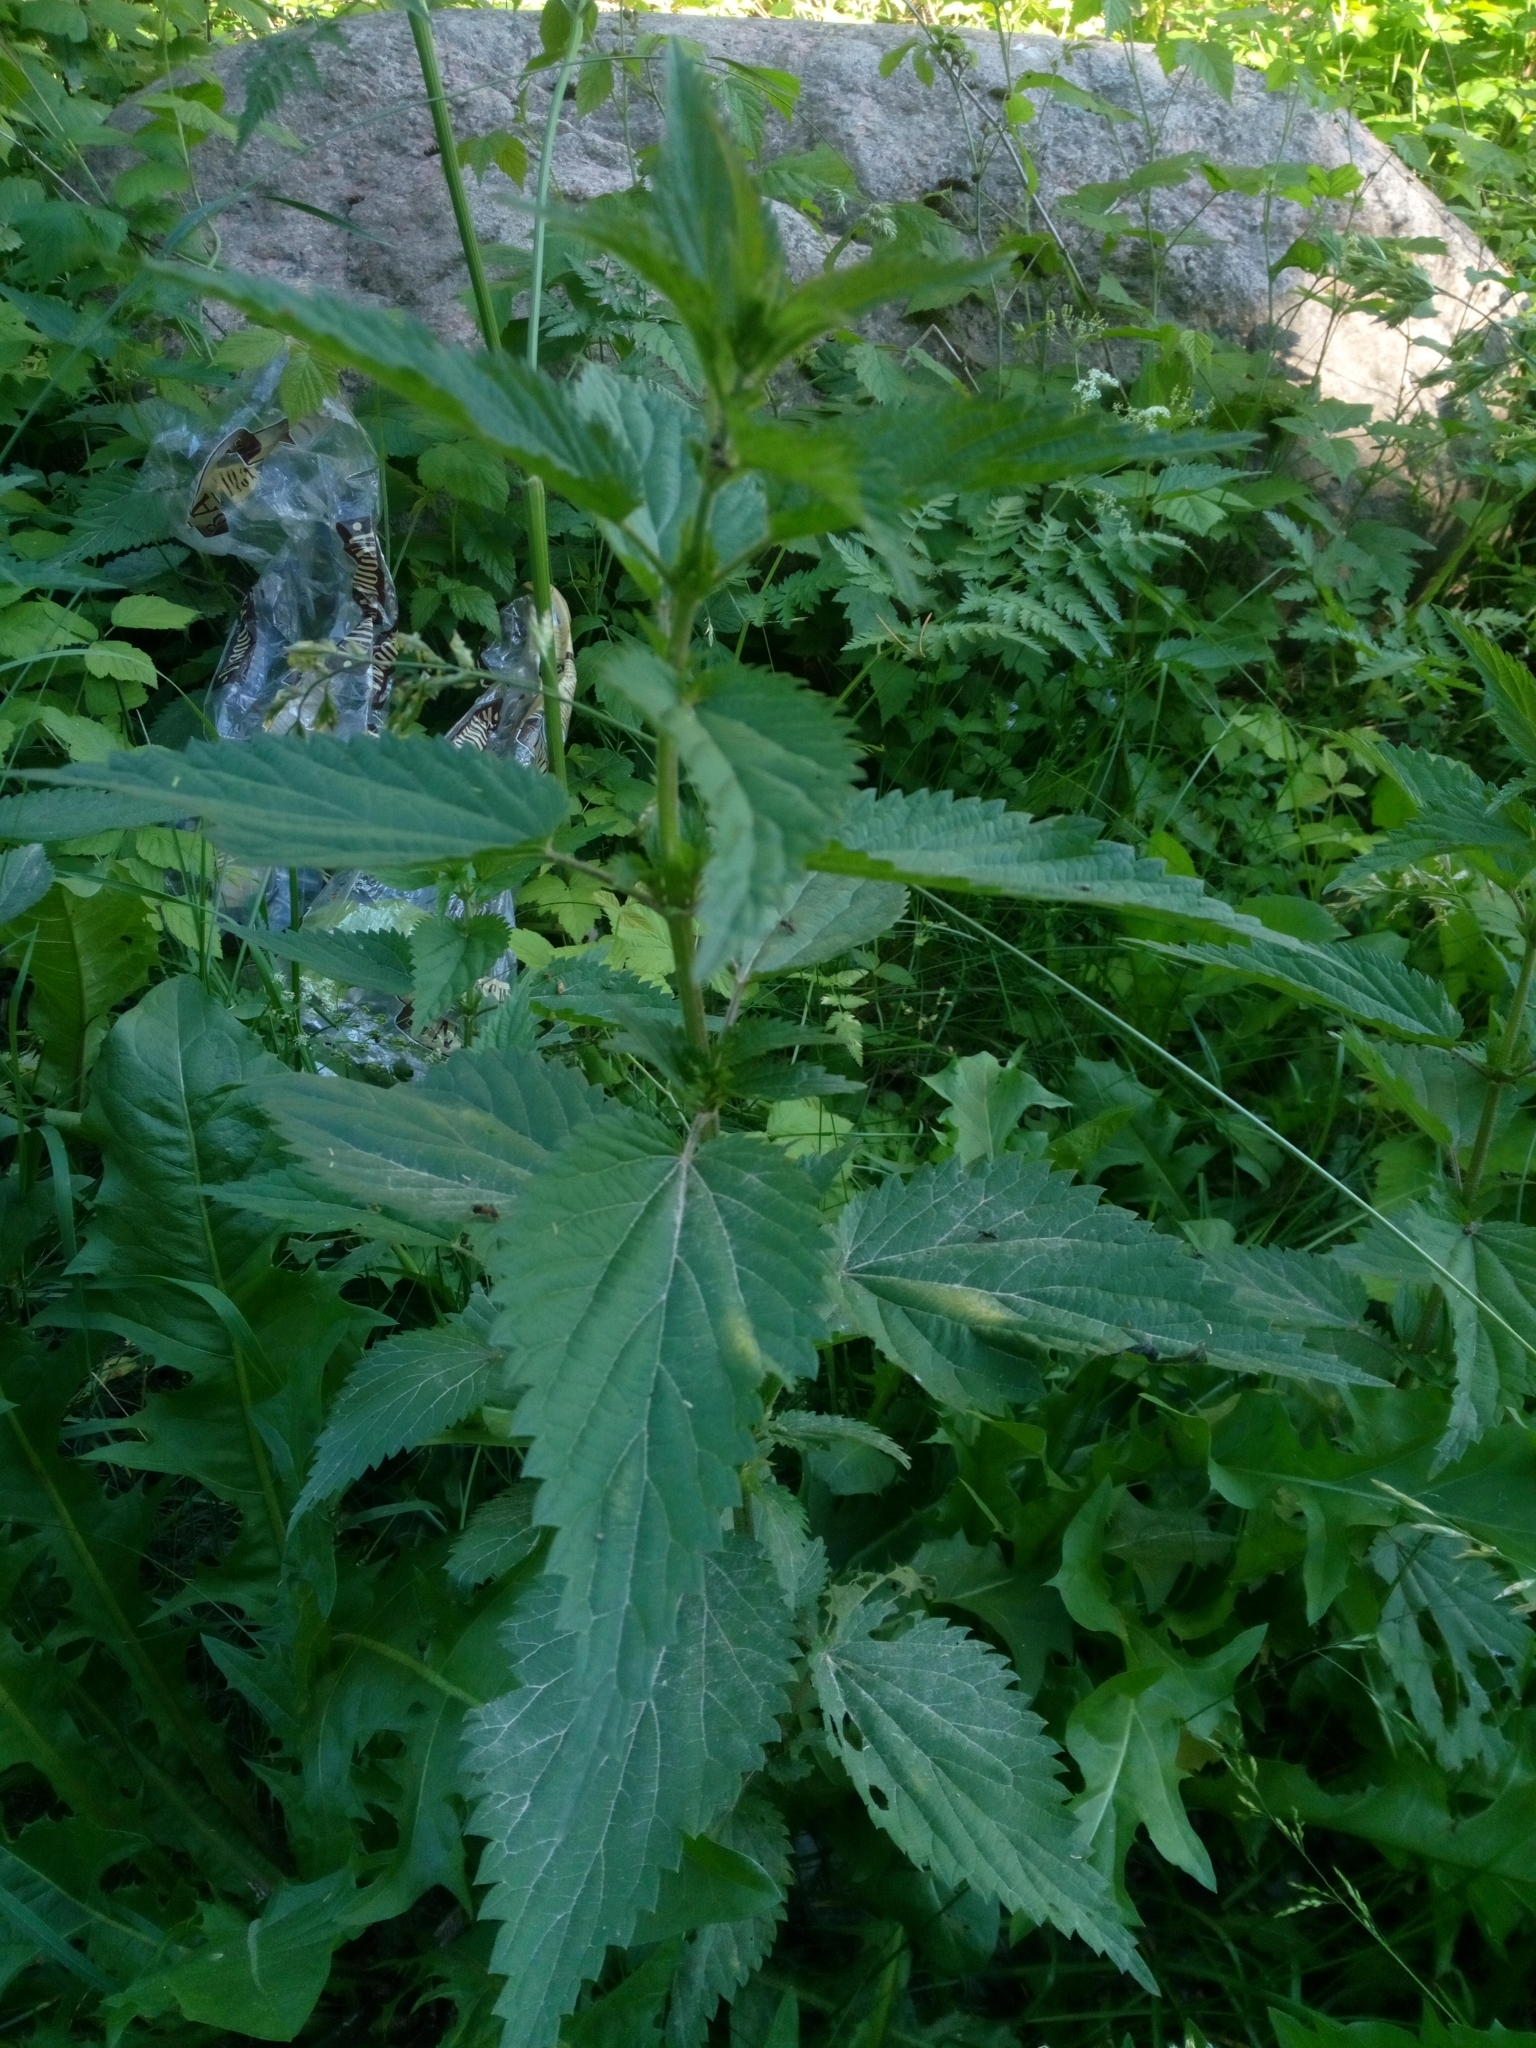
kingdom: Plantae
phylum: Tracheophyta
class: Magnoliopsida
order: Rosales
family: Urticaceae
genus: Urtica
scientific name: Urtica dioica
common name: Common nettle
